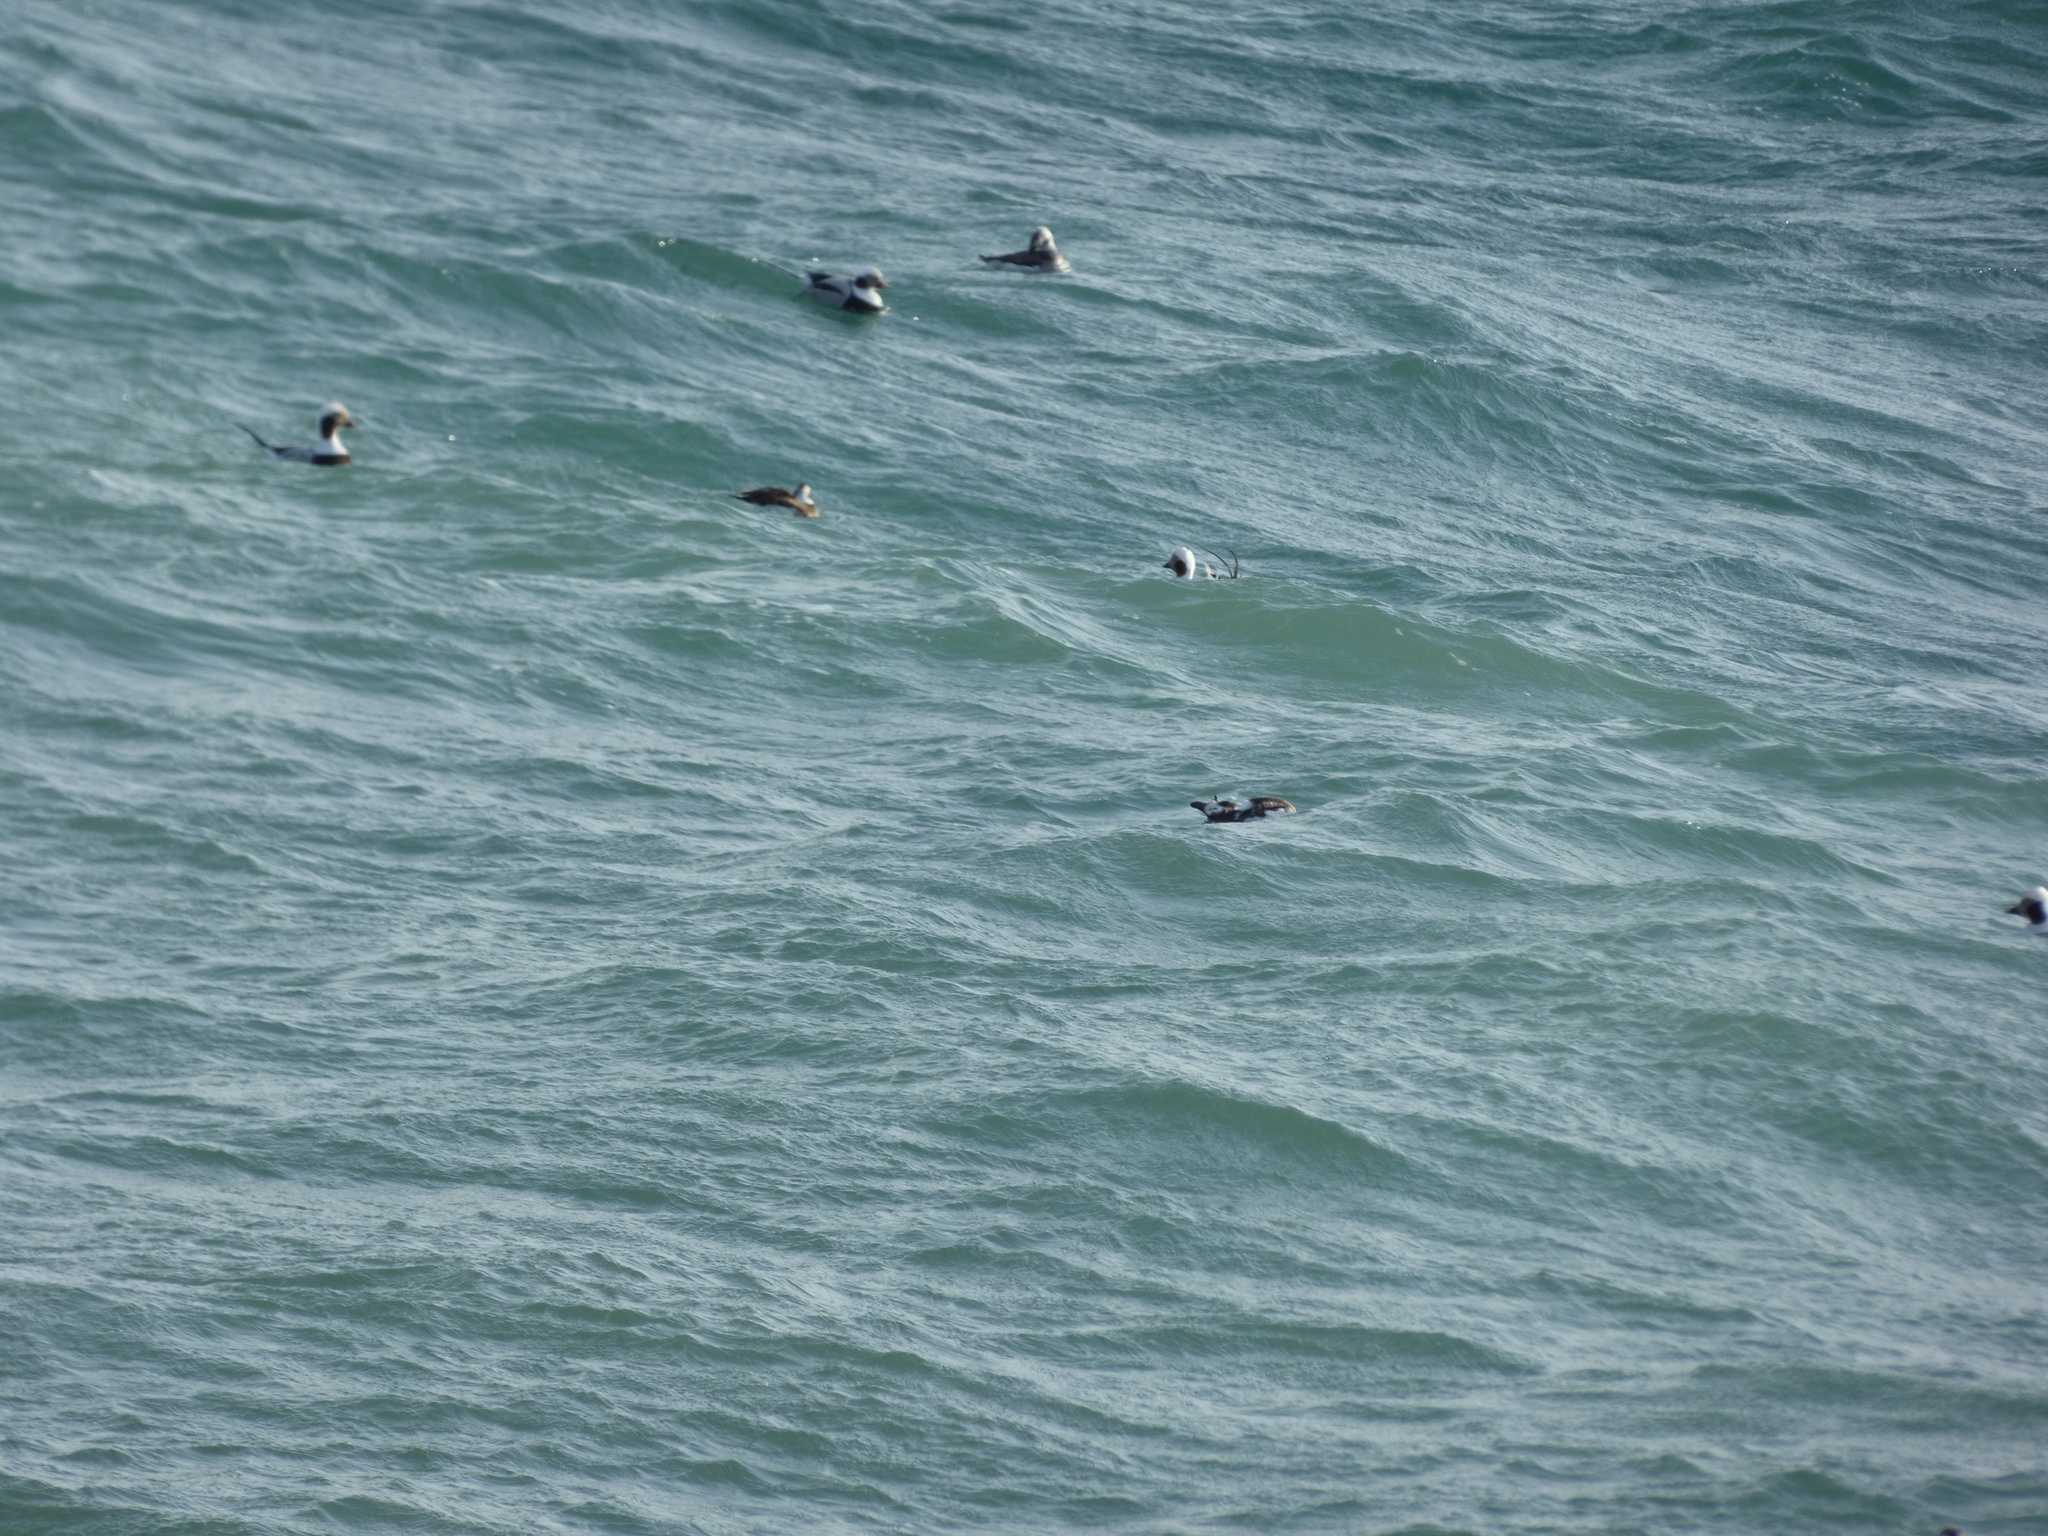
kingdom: Animalia
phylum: Chordata
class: Aves
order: Anseriformes
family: Anatidae
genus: Clangula
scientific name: Clangula hyemalis
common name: Long-tailed duck
